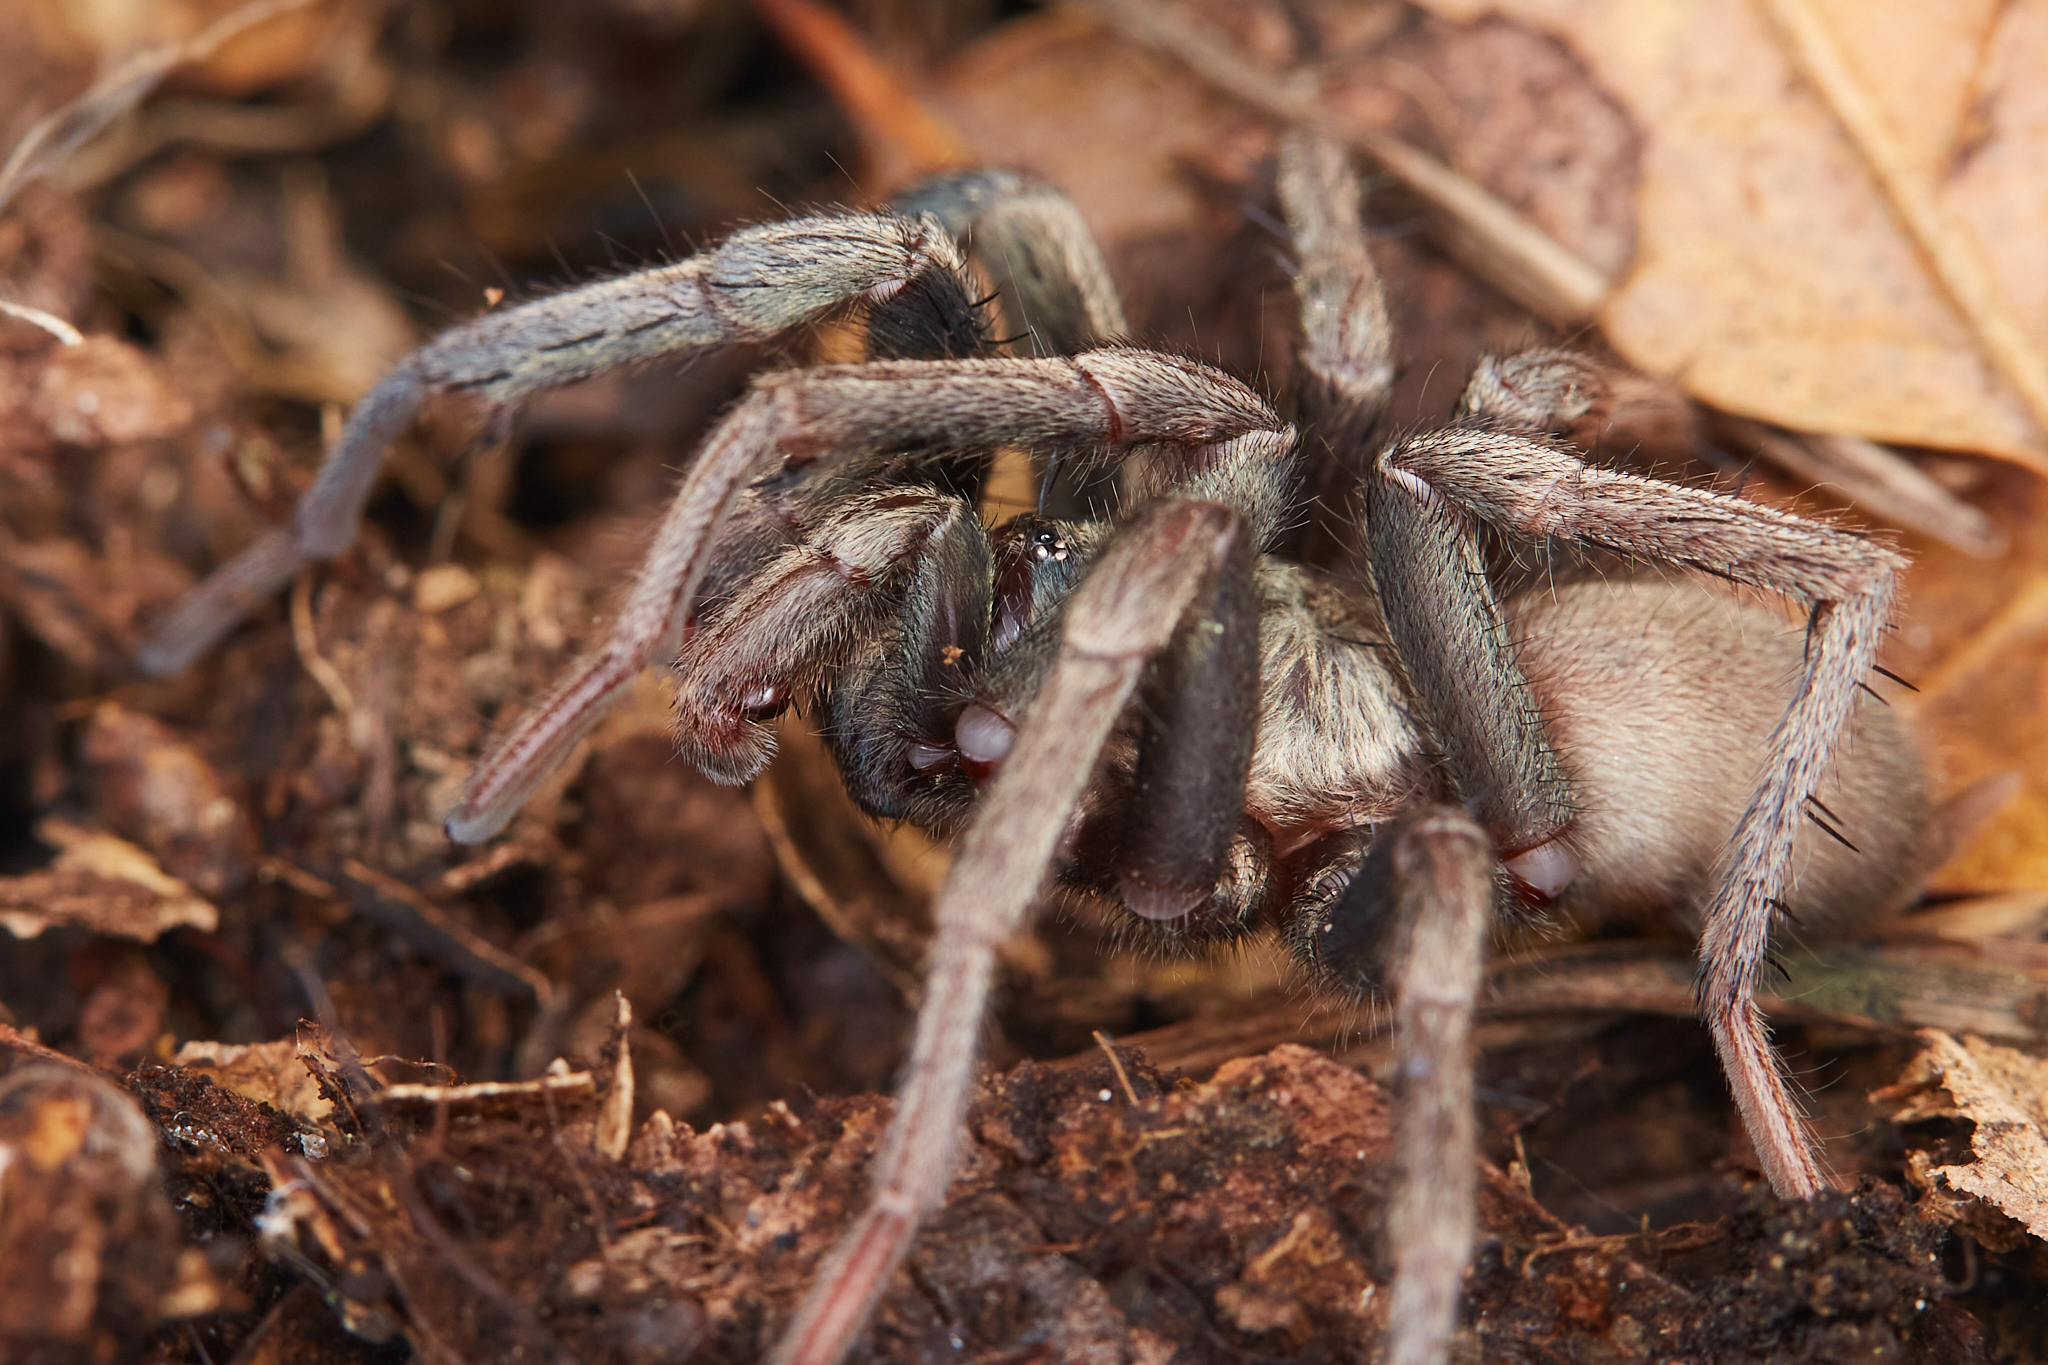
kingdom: Animalia
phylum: Arthropoda
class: Arachnida
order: Araneae
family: Nemesiidae
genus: Calisoga
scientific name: Calisoga longitarsis
